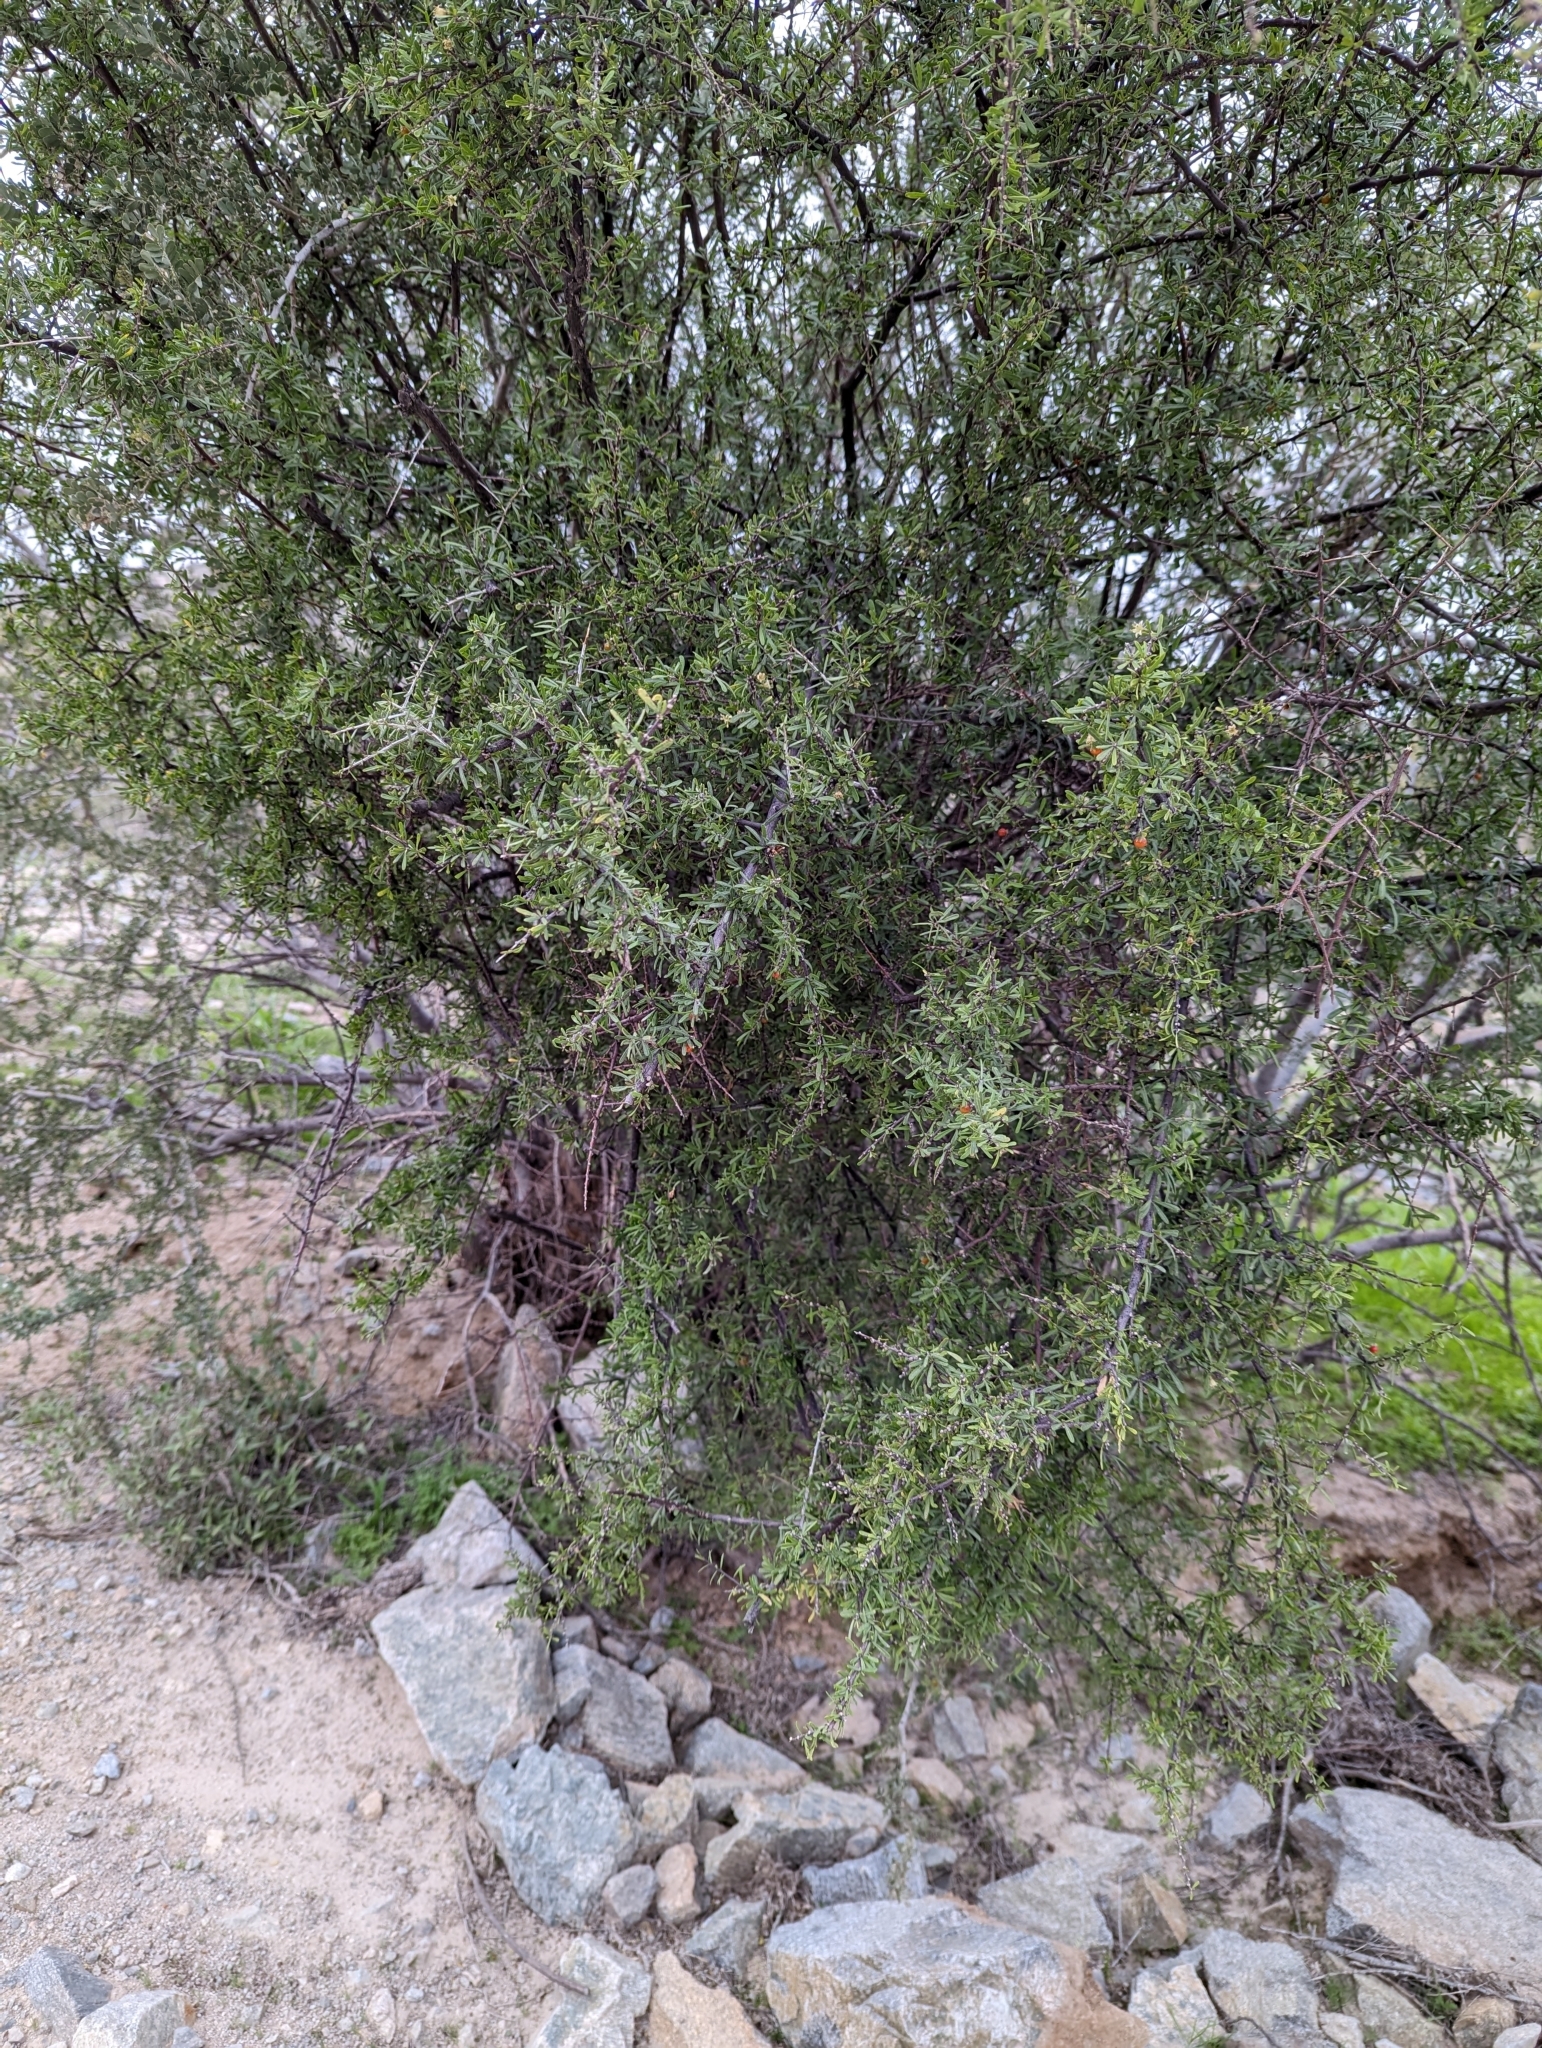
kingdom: Plantae
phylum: Tracheophyta
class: Magnoliopsida
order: Solanales
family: Solanaceae
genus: Lycium
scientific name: Lycium berlandieri
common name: Berlandier wolfberry
